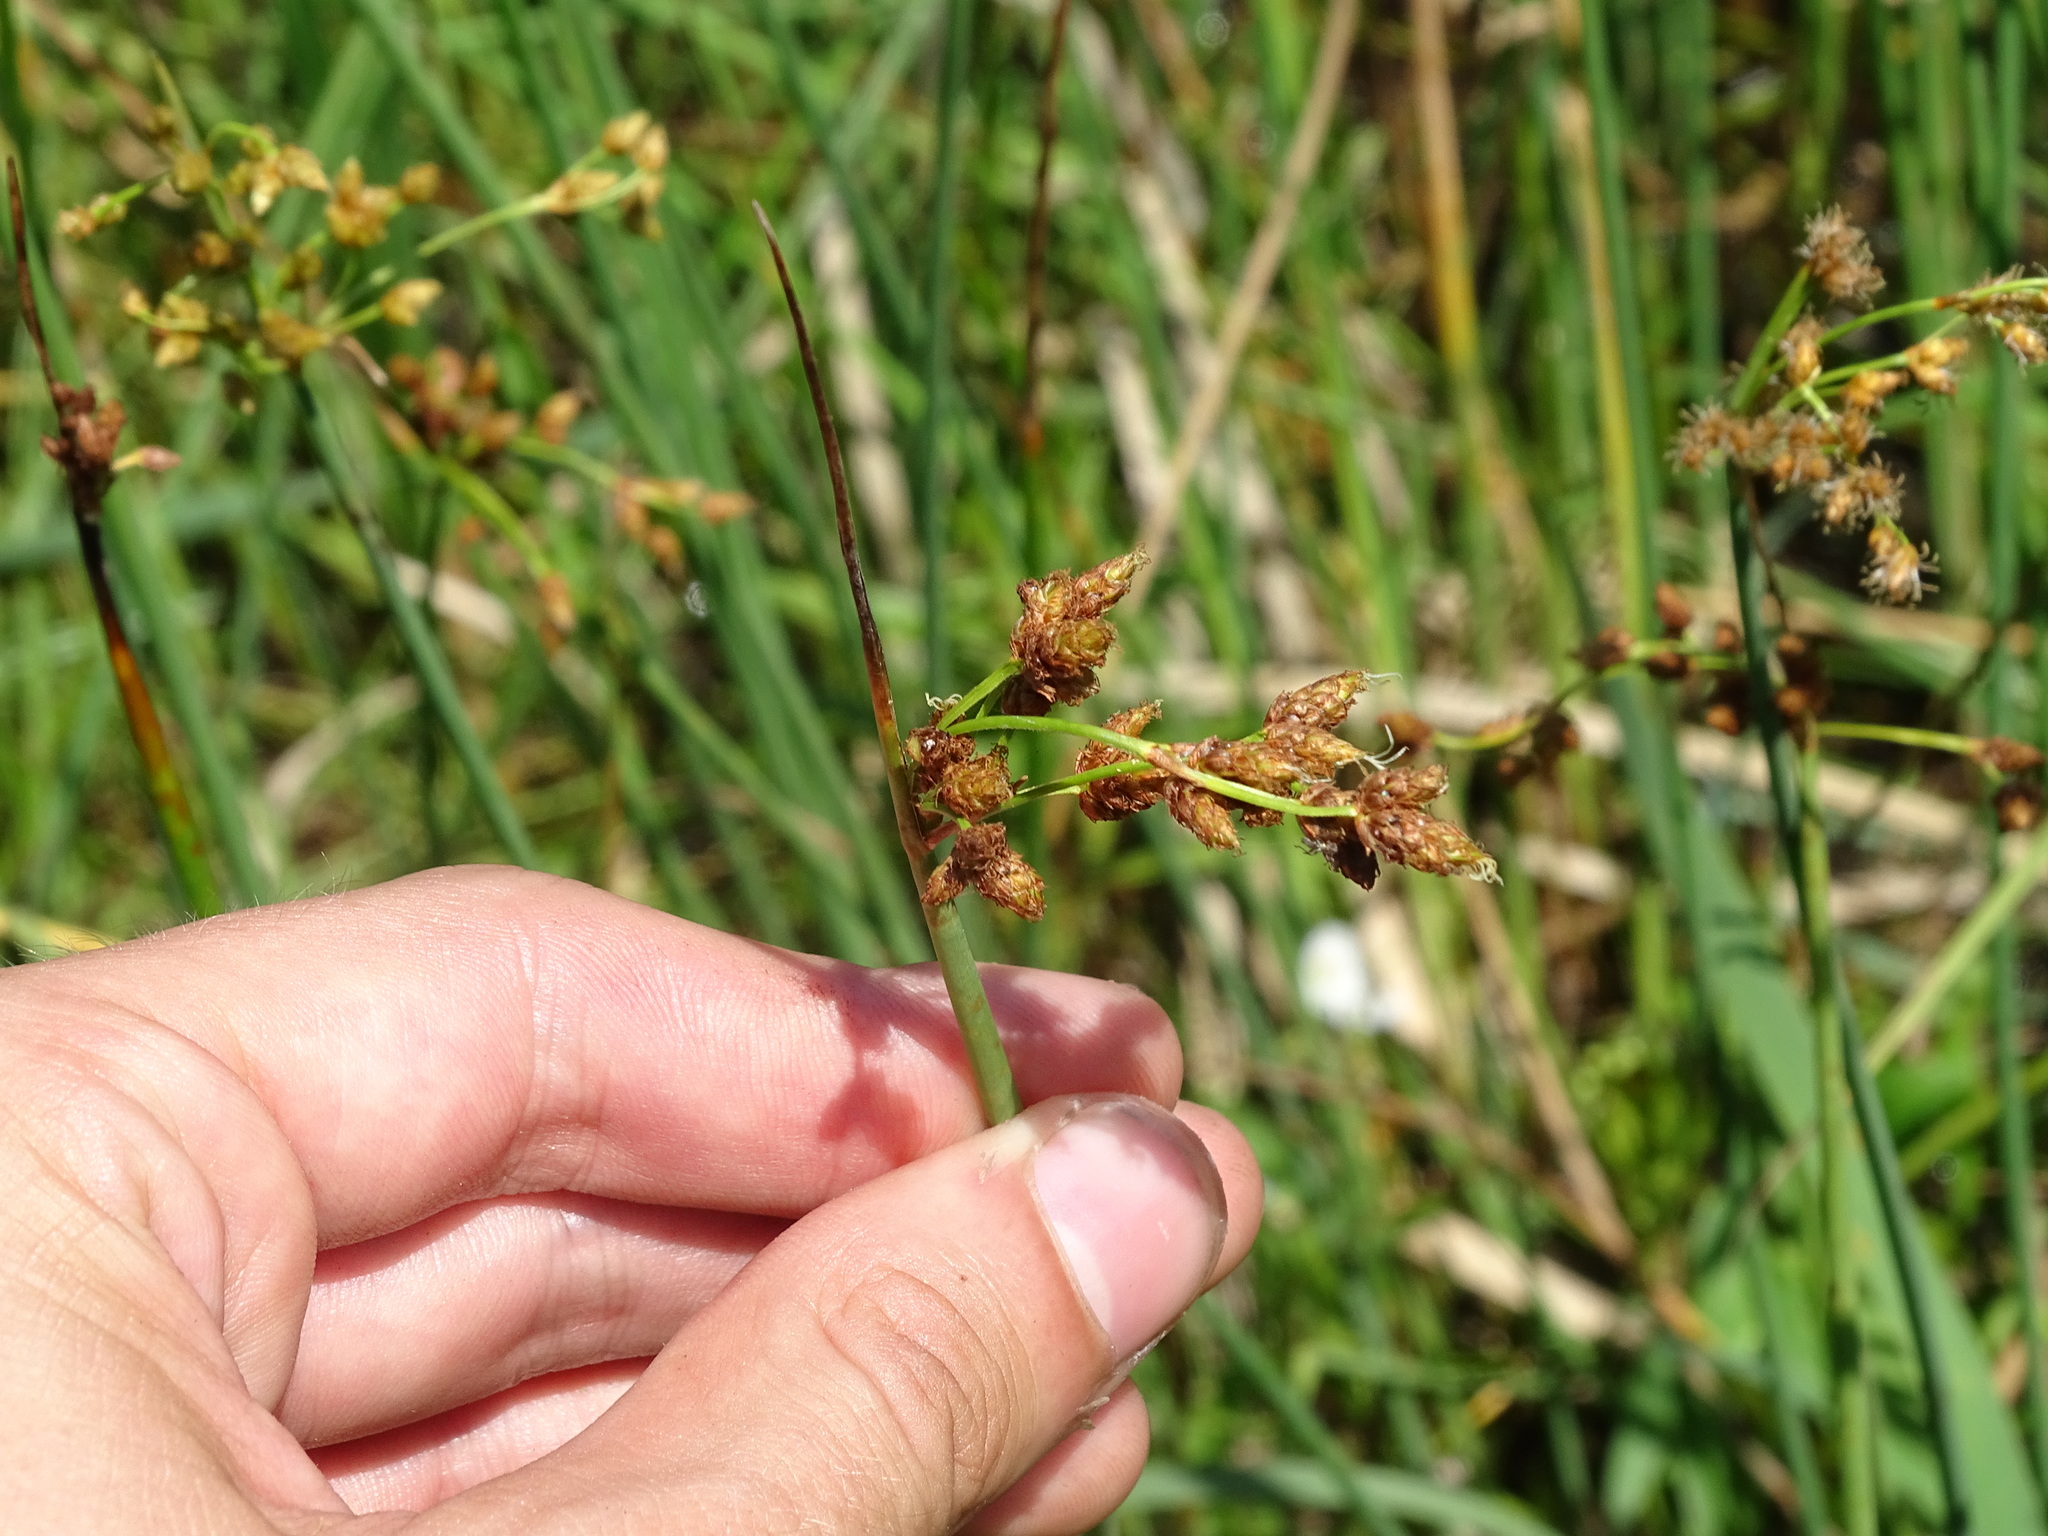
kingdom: Plantae
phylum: Tracheophyta
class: Liliopsida
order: Poales
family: Cyperaceae
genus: Schoenoplectus
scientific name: Schoenoplectus tabernaemontani
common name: Grey club-rush
